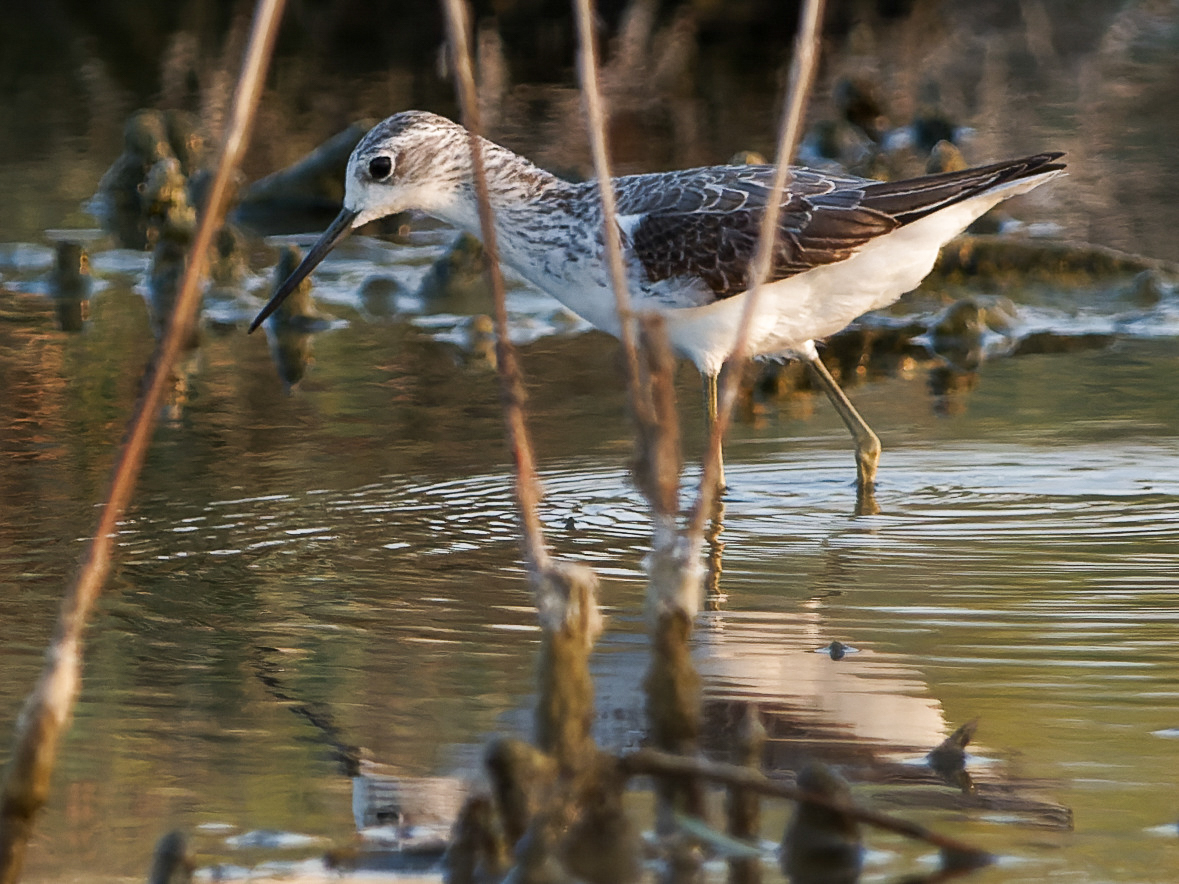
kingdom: Animalia
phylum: Chordata
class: Aves
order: Charadriiformes
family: Scolopacidae
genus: Tringa
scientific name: Tringa stagnatilis
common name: Marsh sandpiper
